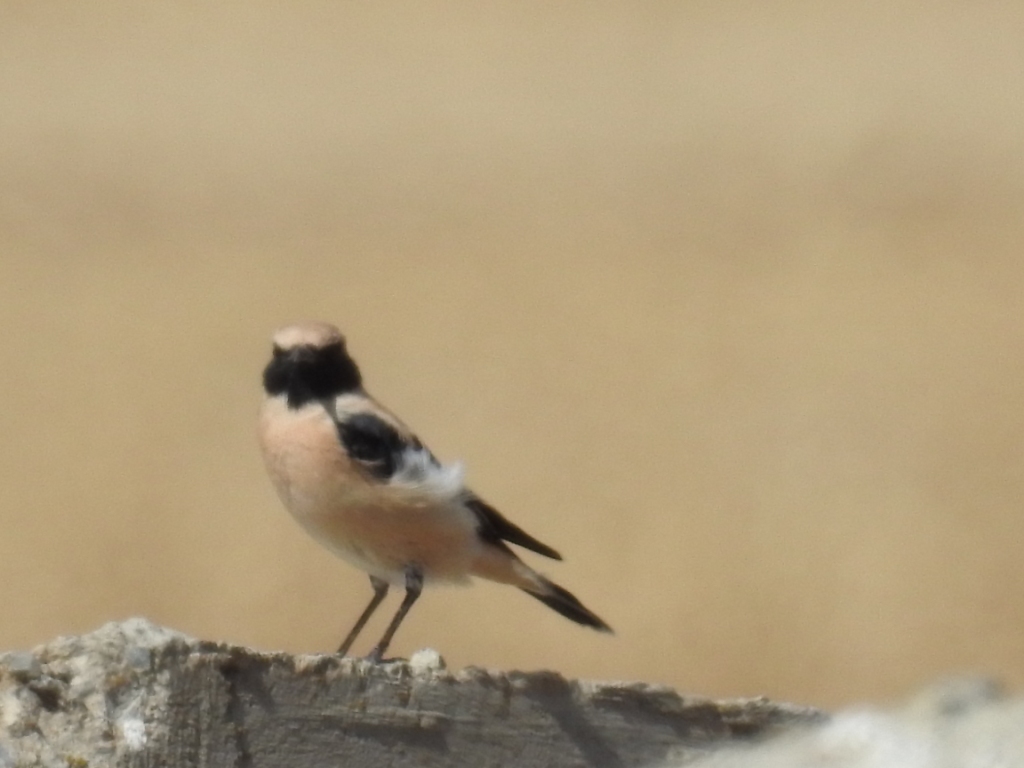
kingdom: Animalia
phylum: Chordata
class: Aves
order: Passeriformes
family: Muscicapidae
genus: Oenanthe
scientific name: Oenanthe hispanica
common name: Black-eared wheatear
